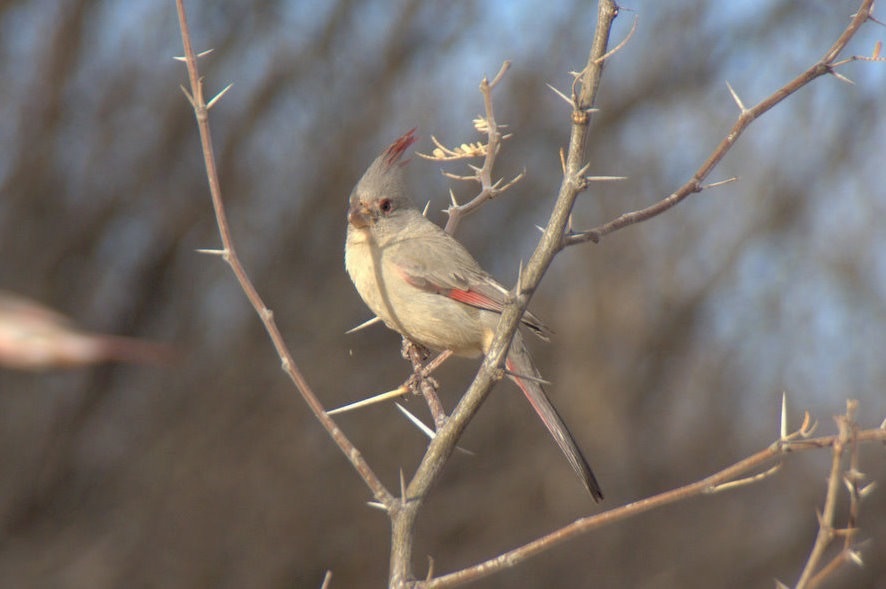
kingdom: Animalia
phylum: Chordata
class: Aves
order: Passeriformes
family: Cardinalidae
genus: Cardinalis
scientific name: Cardinalis sinuatus
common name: Pyrrhuloxia
